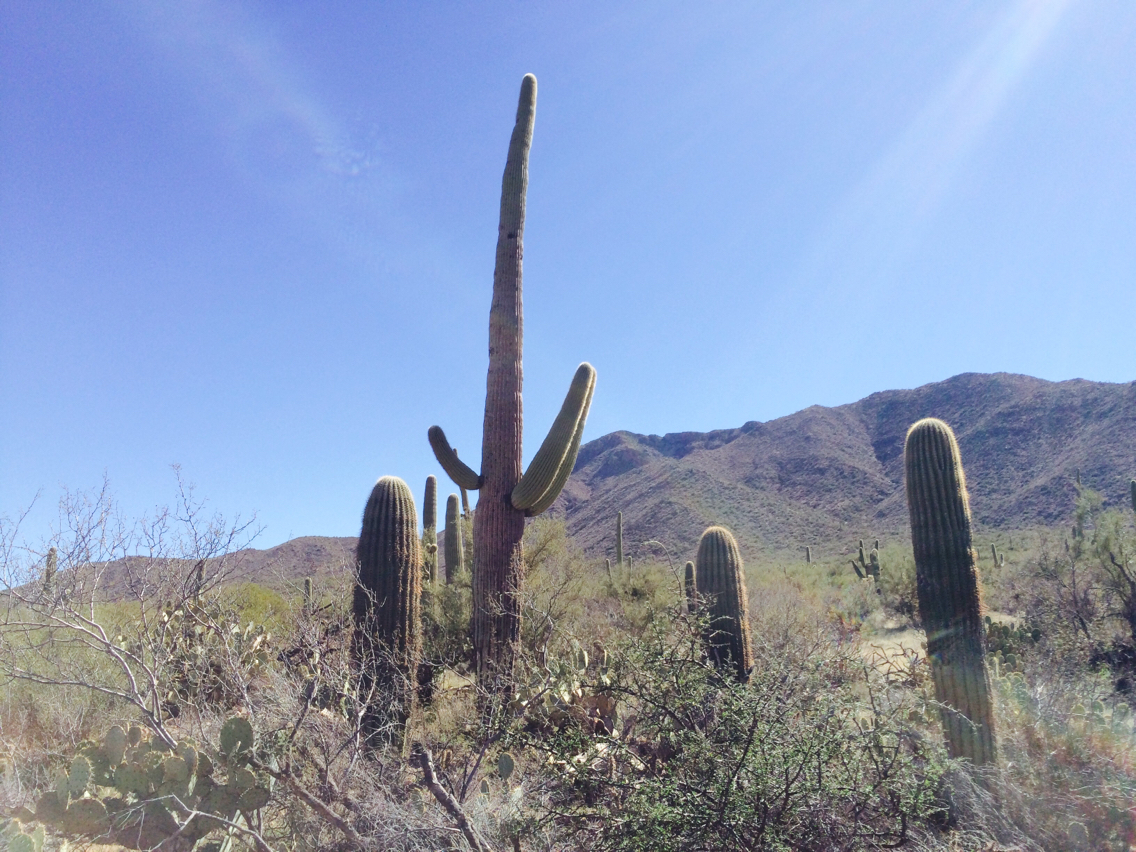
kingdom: Plantae
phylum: Tracheophyta
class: Magnoliopsida
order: Caryophyllales
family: Cactaceae
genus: Carnegiea
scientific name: Carnegiea gigantea
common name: Saguaro
